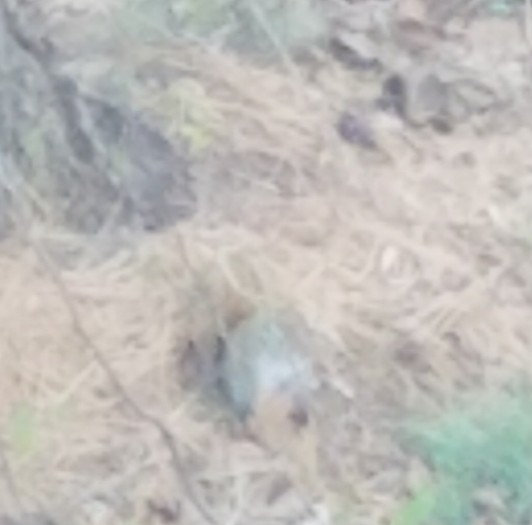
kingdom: Animalia
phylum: Chordata
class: Mammalia
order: Rodentia
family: Sciuridae
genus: Sciurus
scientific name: Sciurus carolinensis
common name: Eastern gray squirrel
